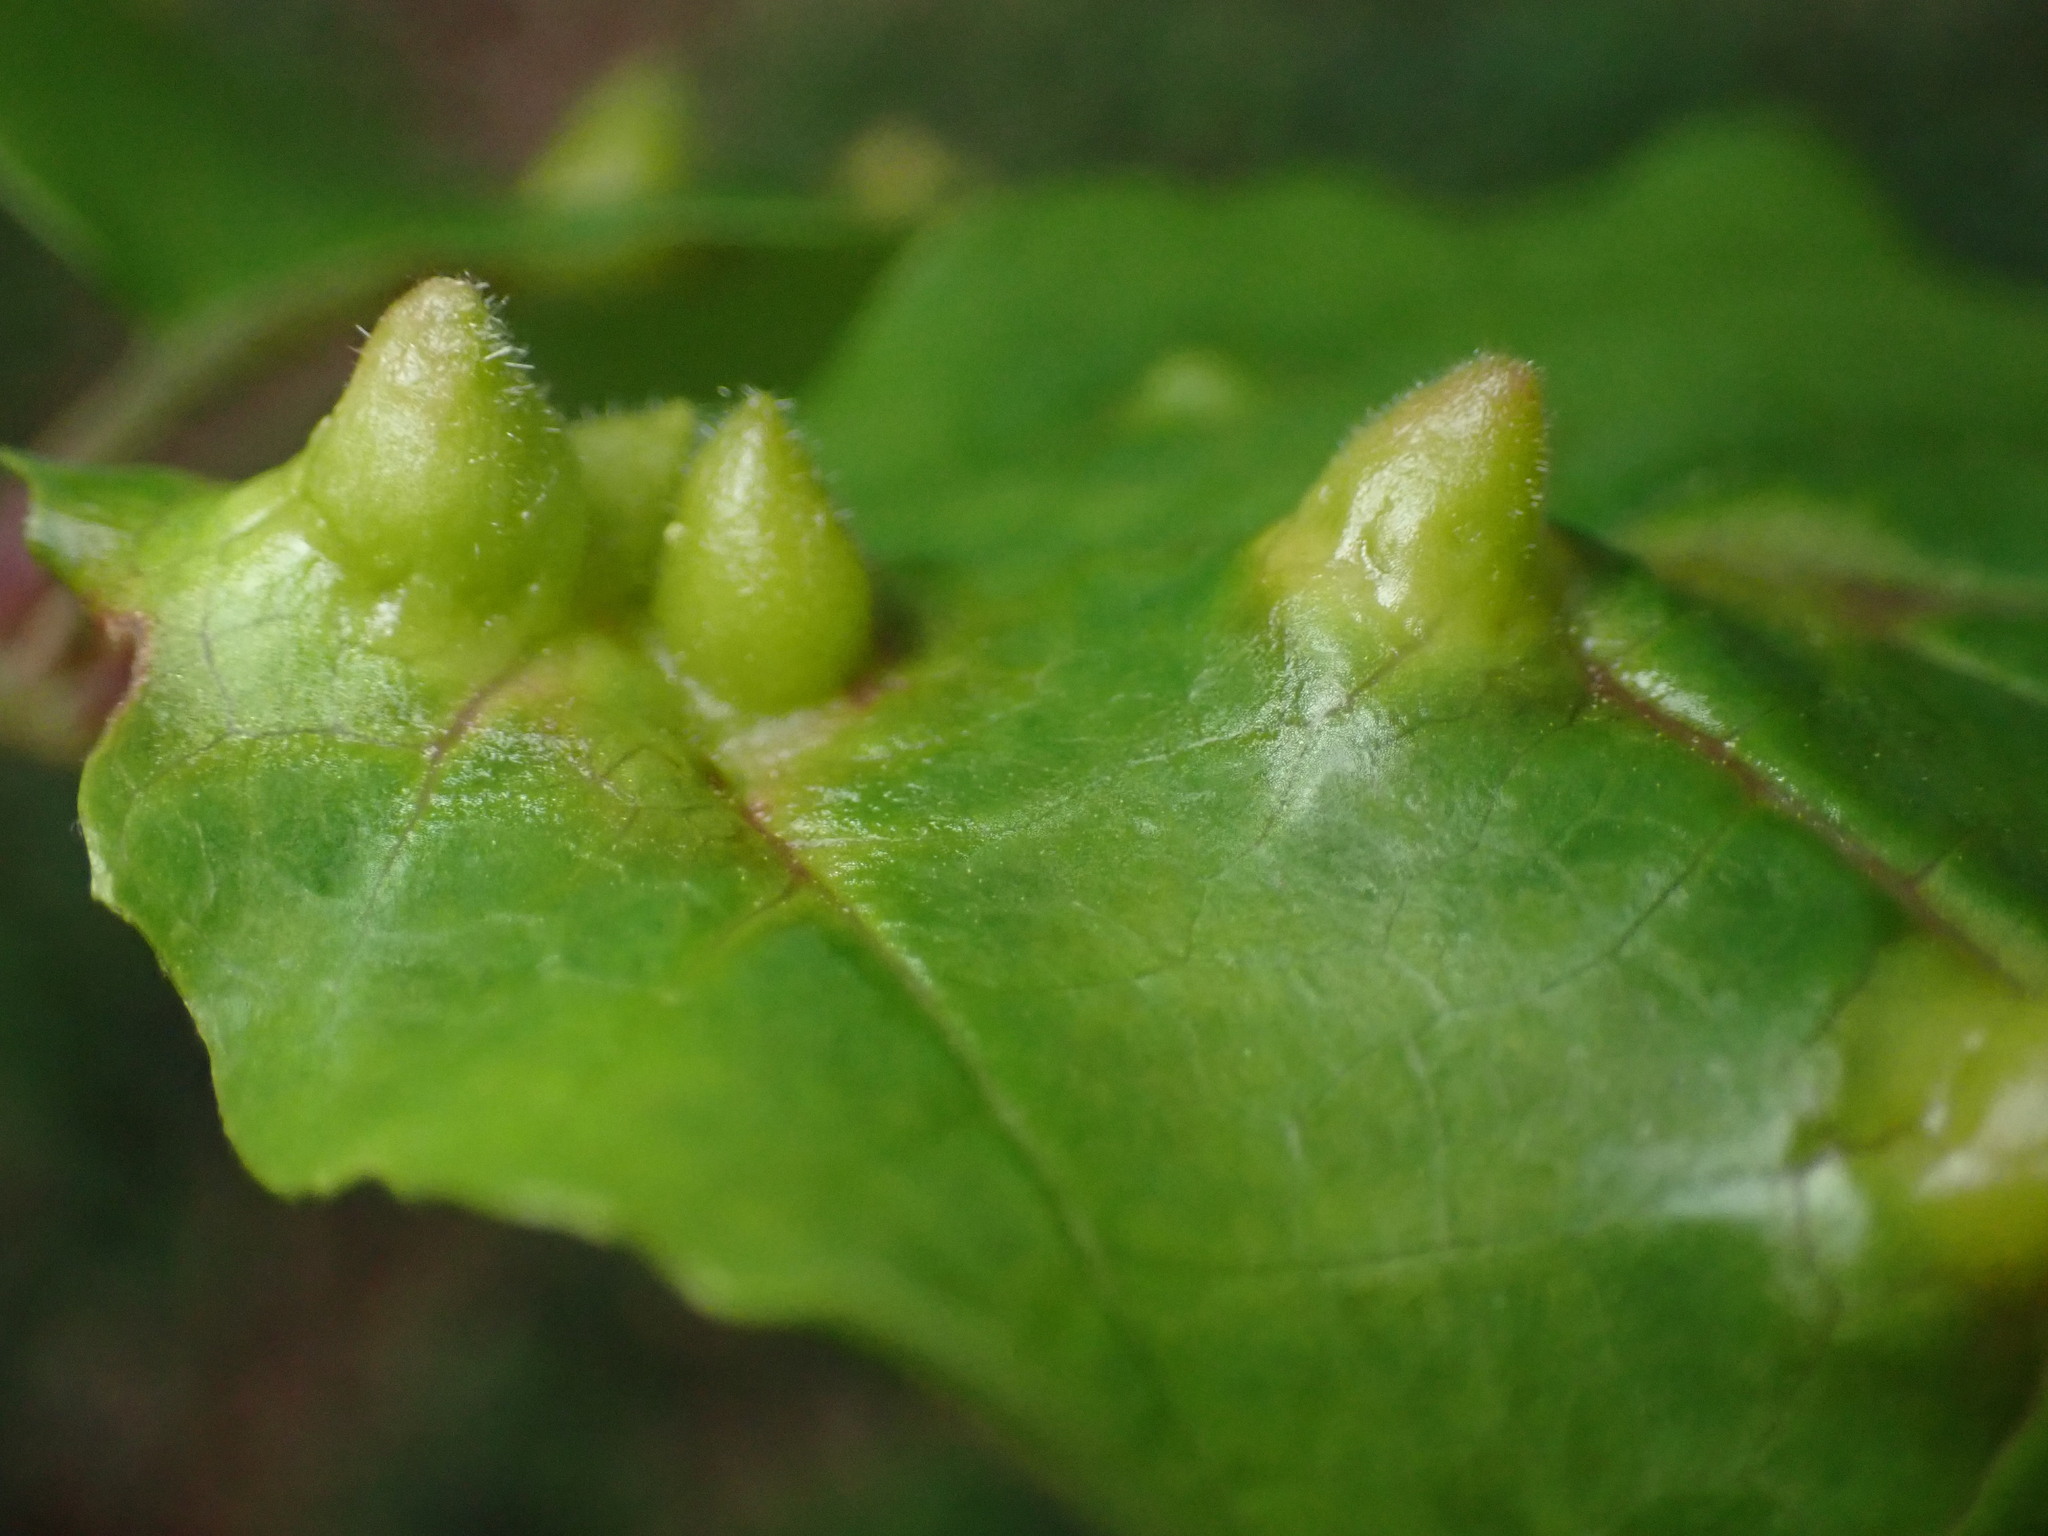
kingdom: Animalia
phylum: Arthropoda
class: Insecta
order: Hemiptera
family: Aphididae
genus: Hormaphis
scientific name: Hormaphis hamamelidis
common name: Witch-hazel cone gall aphid
